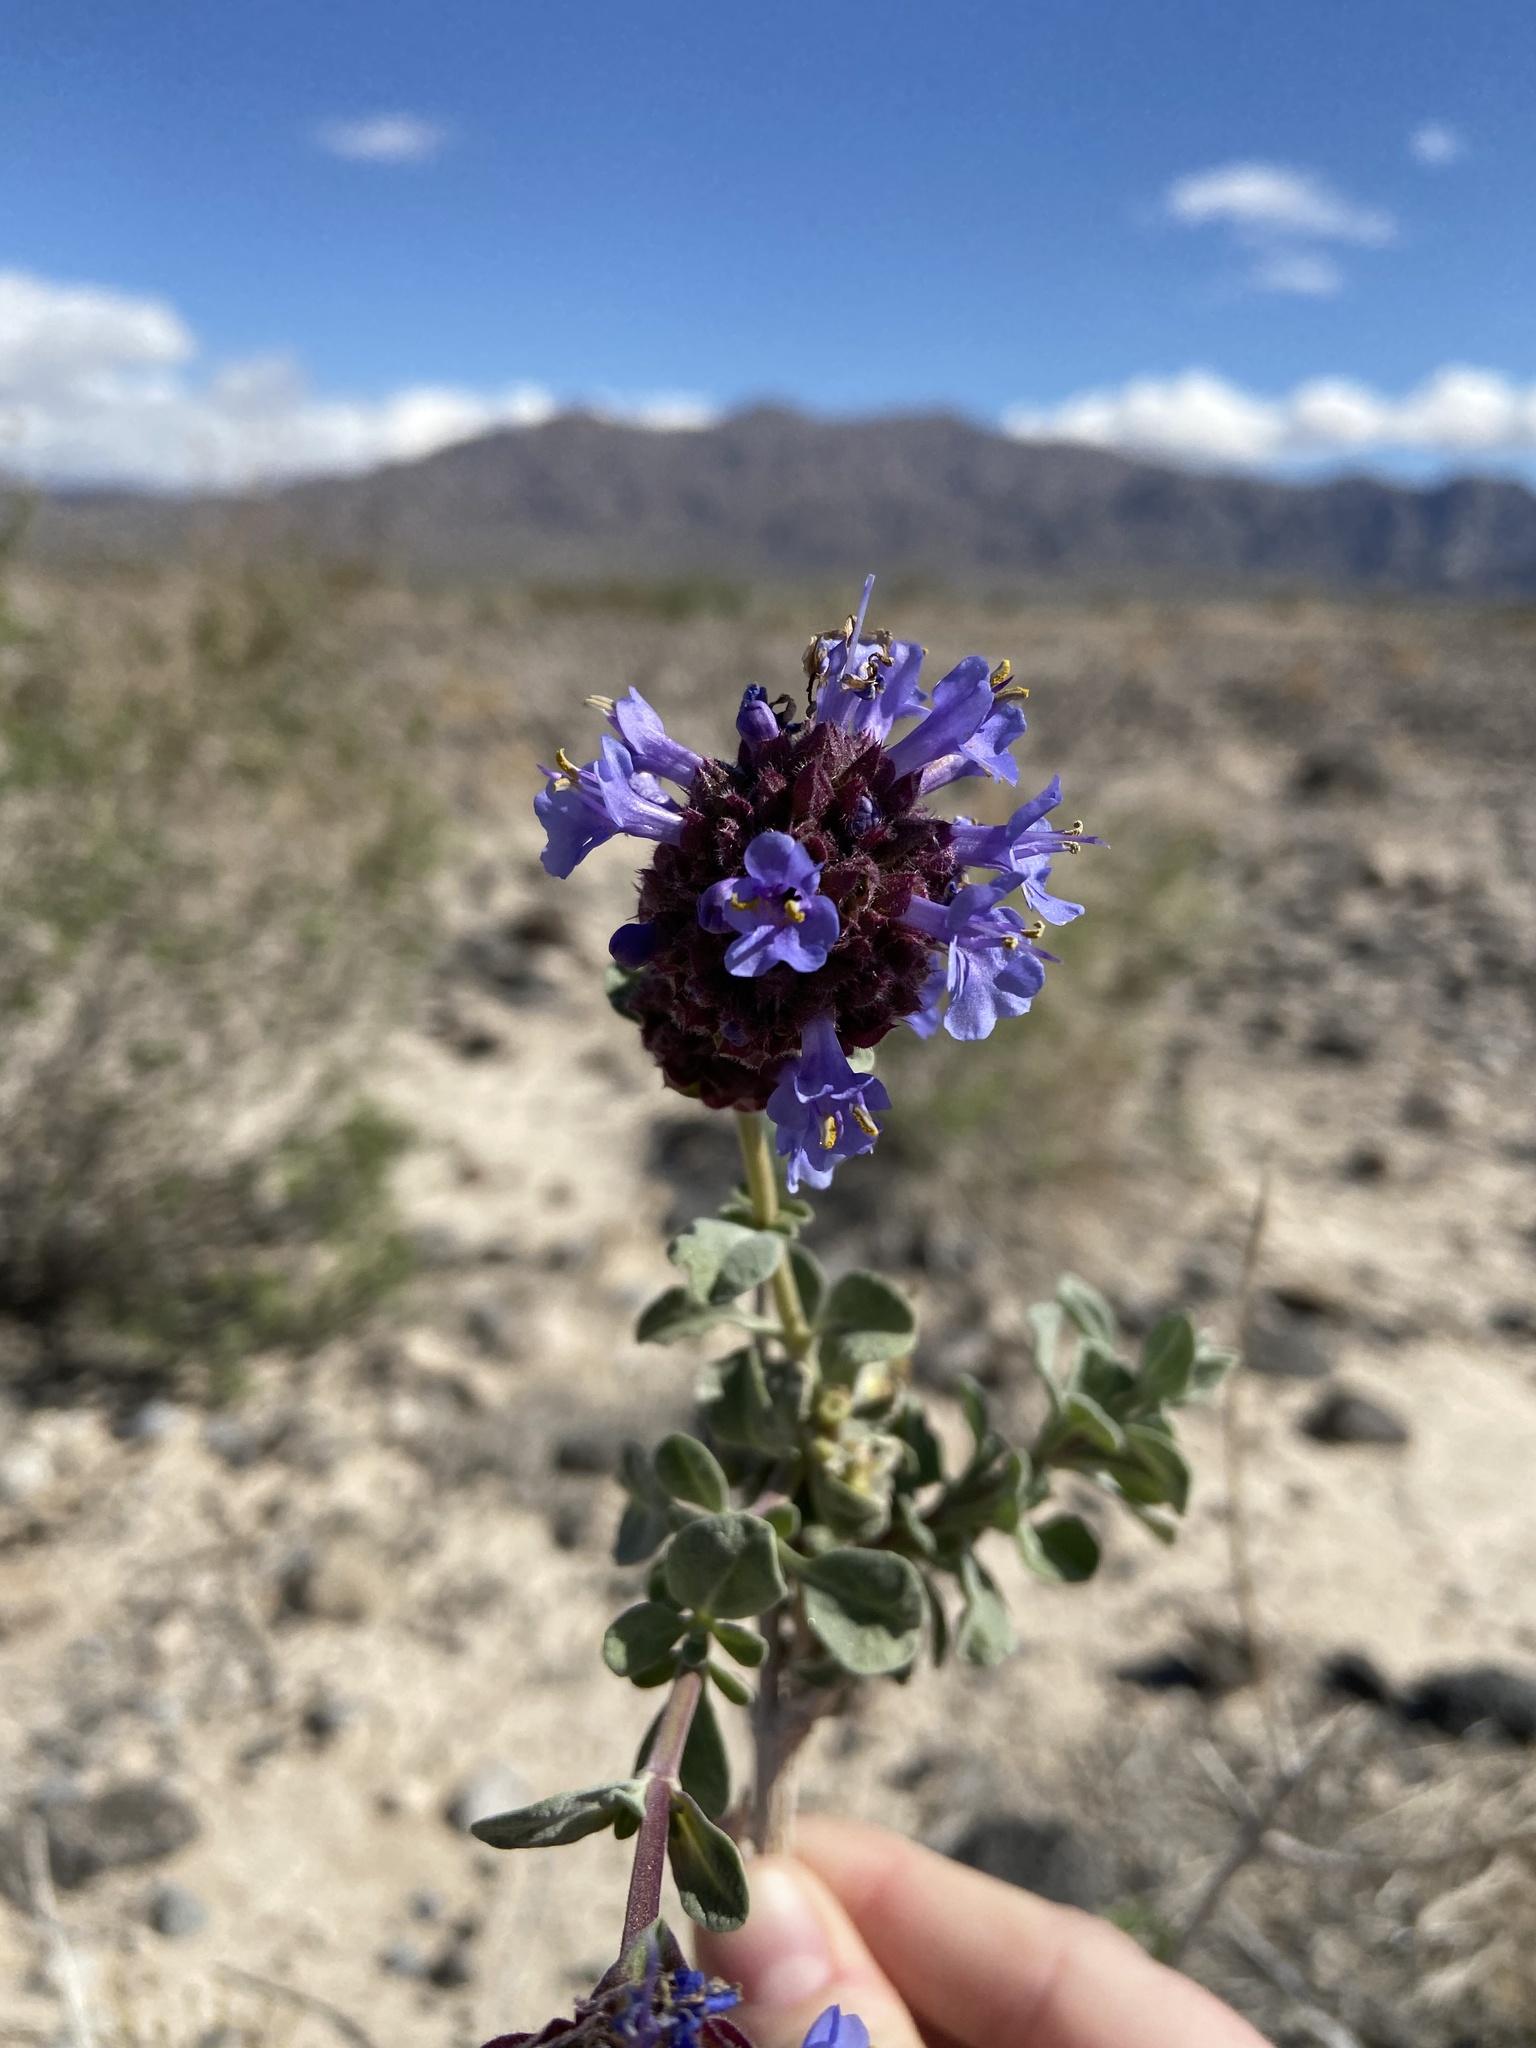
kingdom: Plantae
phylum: Tracheophyta
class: Magnoliopsida
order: Lamiales
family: Lamiaceae
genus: Salvia
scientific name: Salvia dorrii
